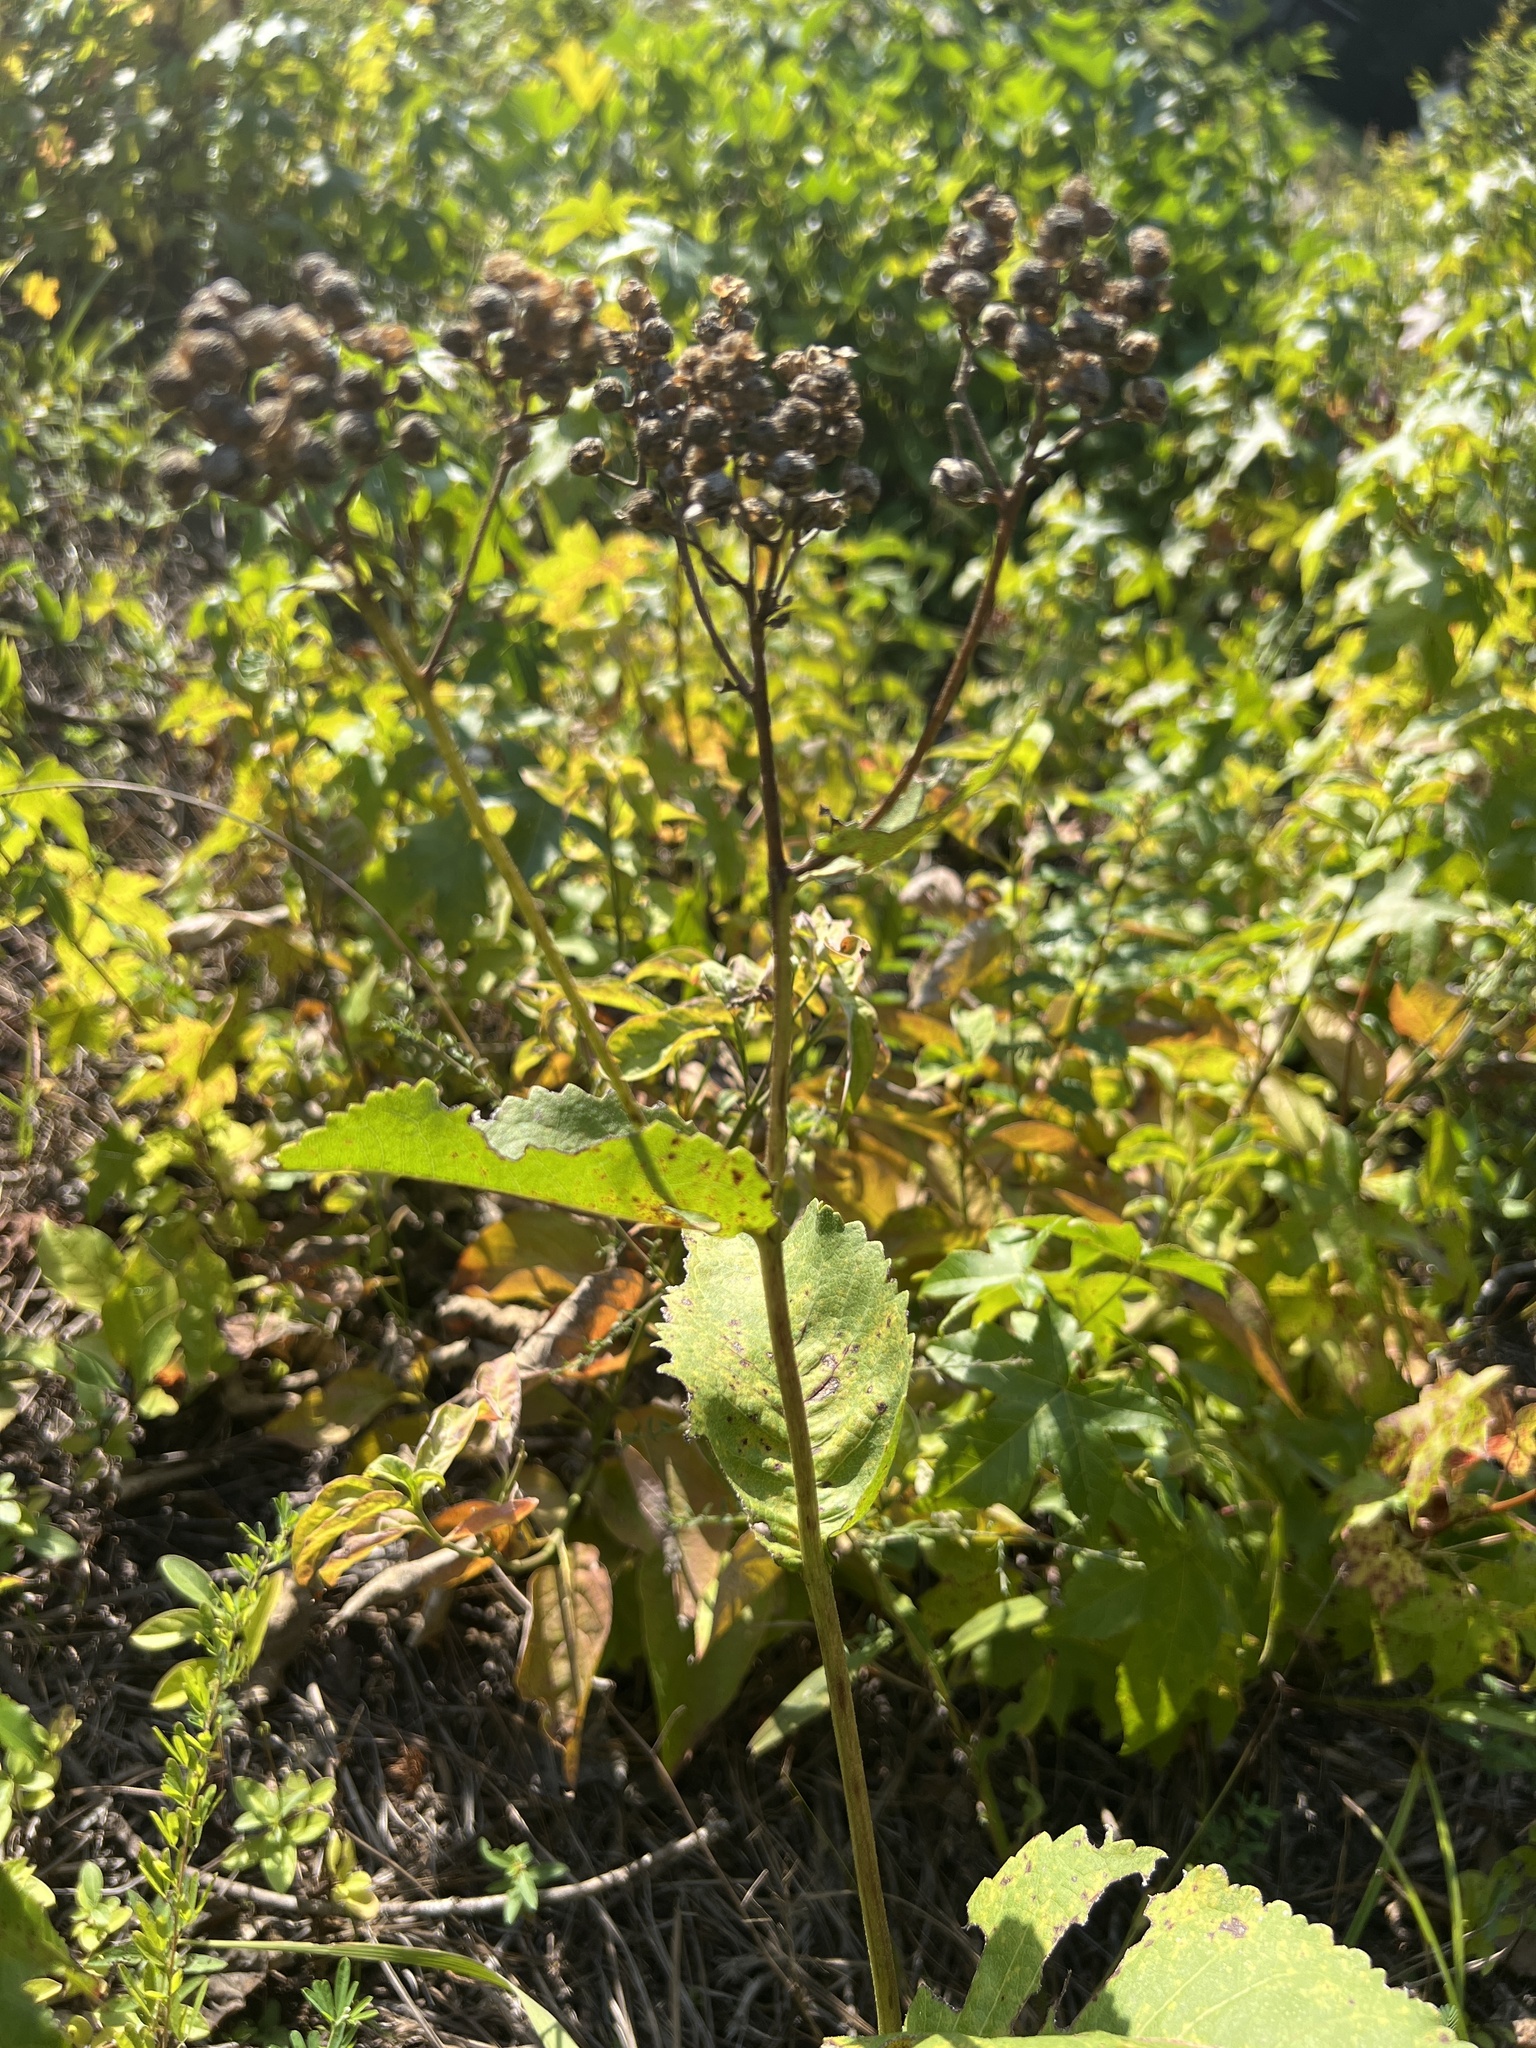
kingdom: Plantae
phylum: Tracheophyta
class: Magnoliopsida
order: Asterales
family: Asteraceae
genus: Parthenium
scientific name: Parthenium integrifolium
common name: American feverfew
